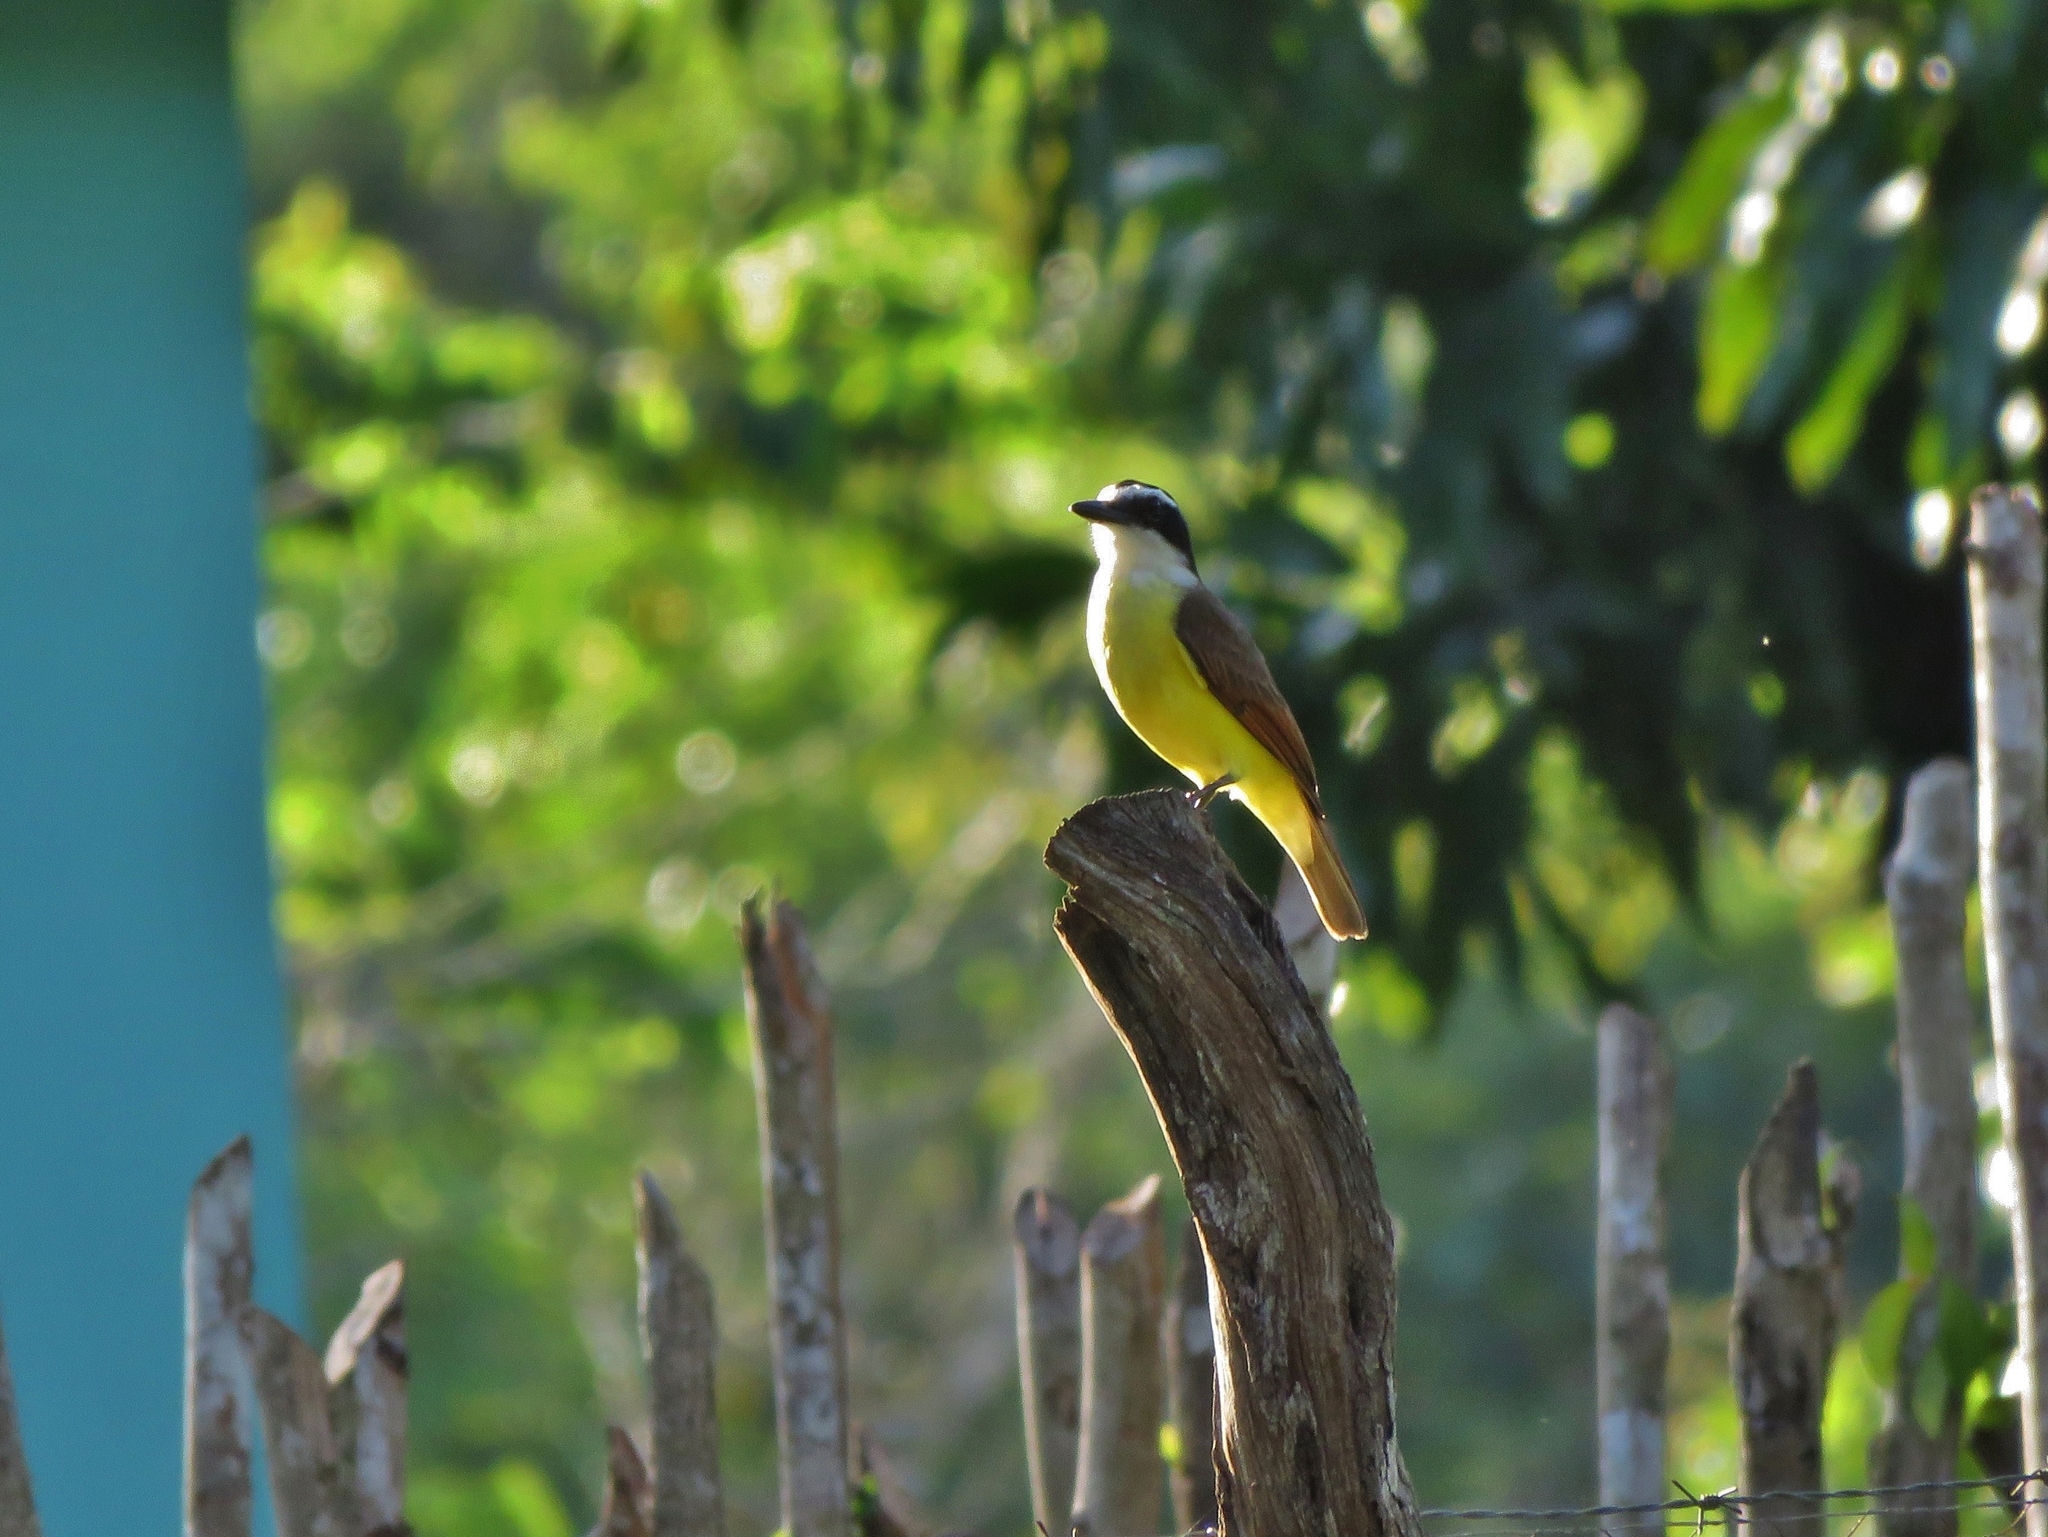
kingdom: Animalia
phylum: Chordata
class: Aves
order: Passeriformes
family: Tyrannidae
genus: Pitangus
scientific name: Pitangus sulphuratus
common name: Great kiskadee
